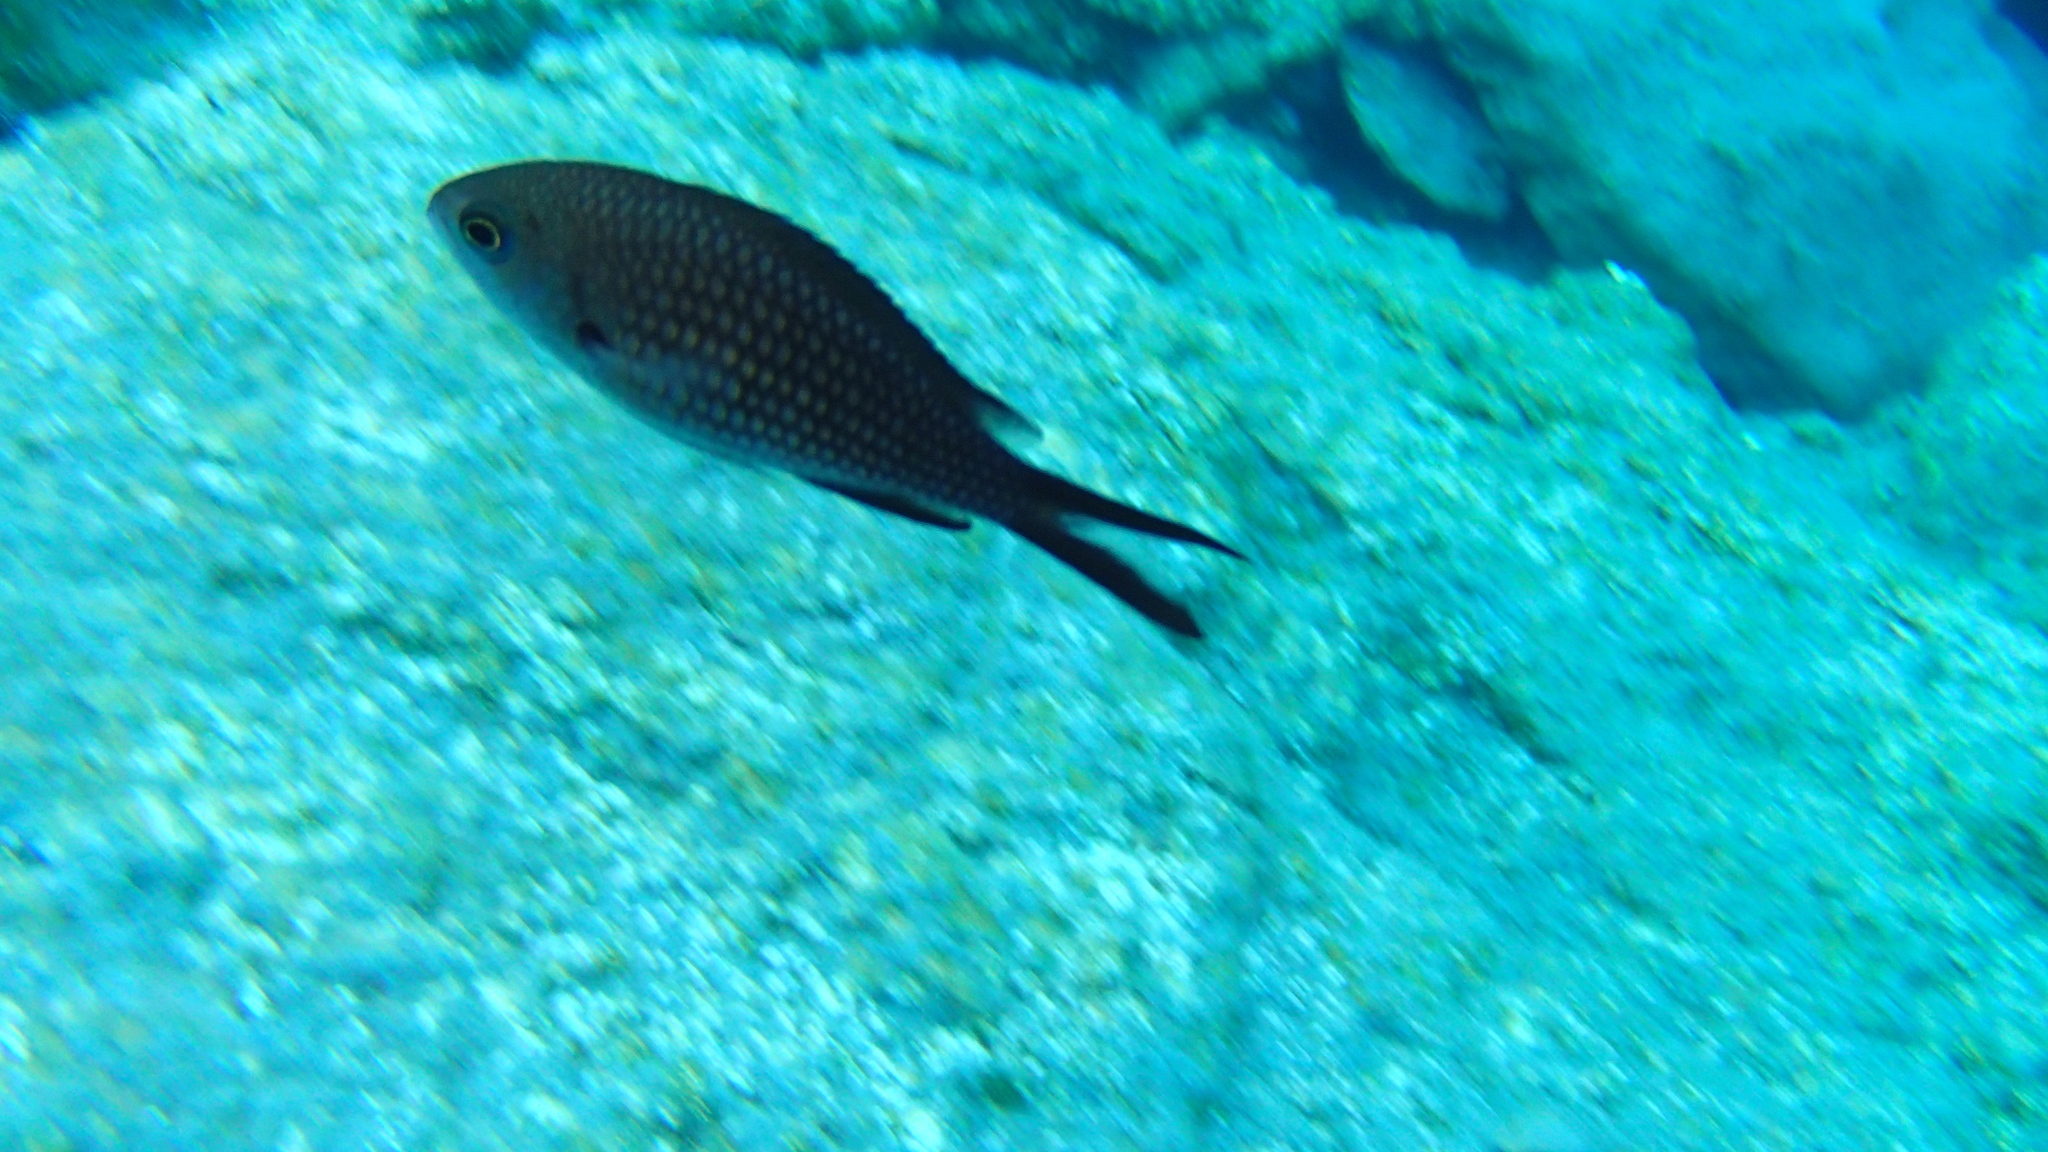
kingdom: Animalia
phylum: Chordata
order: Perciformes
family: Pomacentridae
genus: Chromis
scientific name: Chromis chromis
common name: Damselfish
